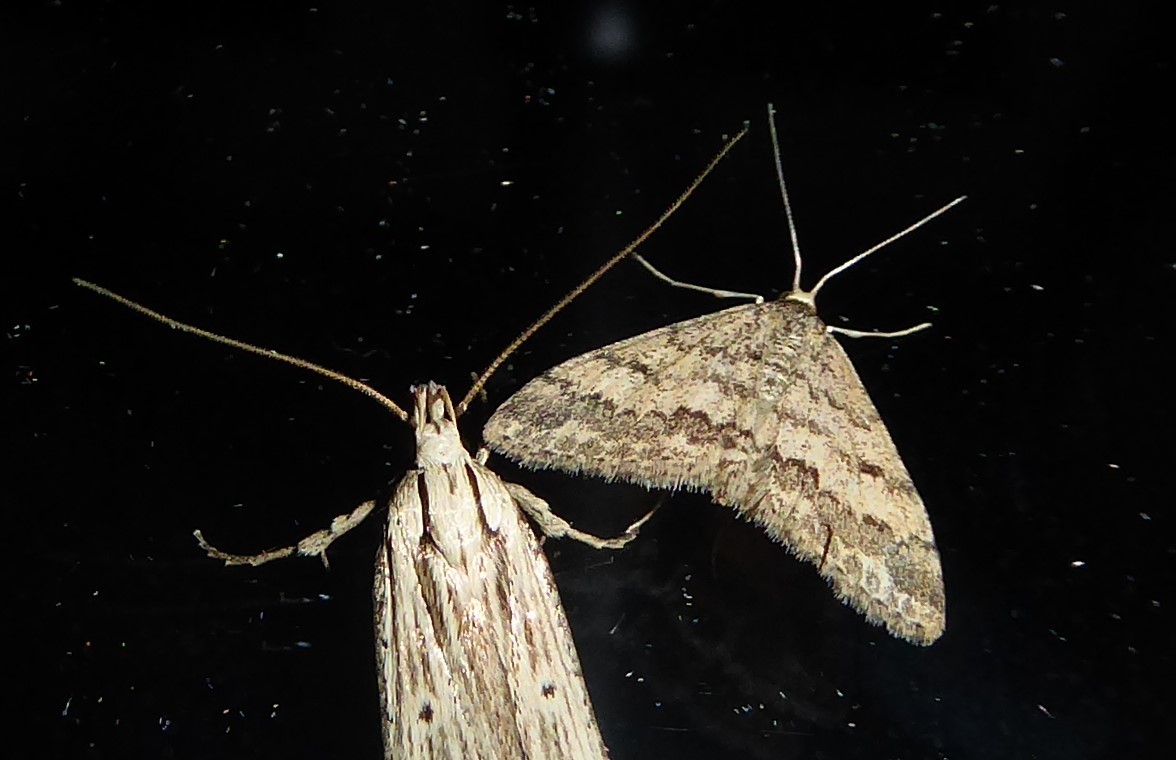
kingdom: Animalia
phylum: Arthropoda
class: Insecta
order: Lepidoptera
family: Geometridae
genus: Scopula
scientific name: Scopula rubraria
